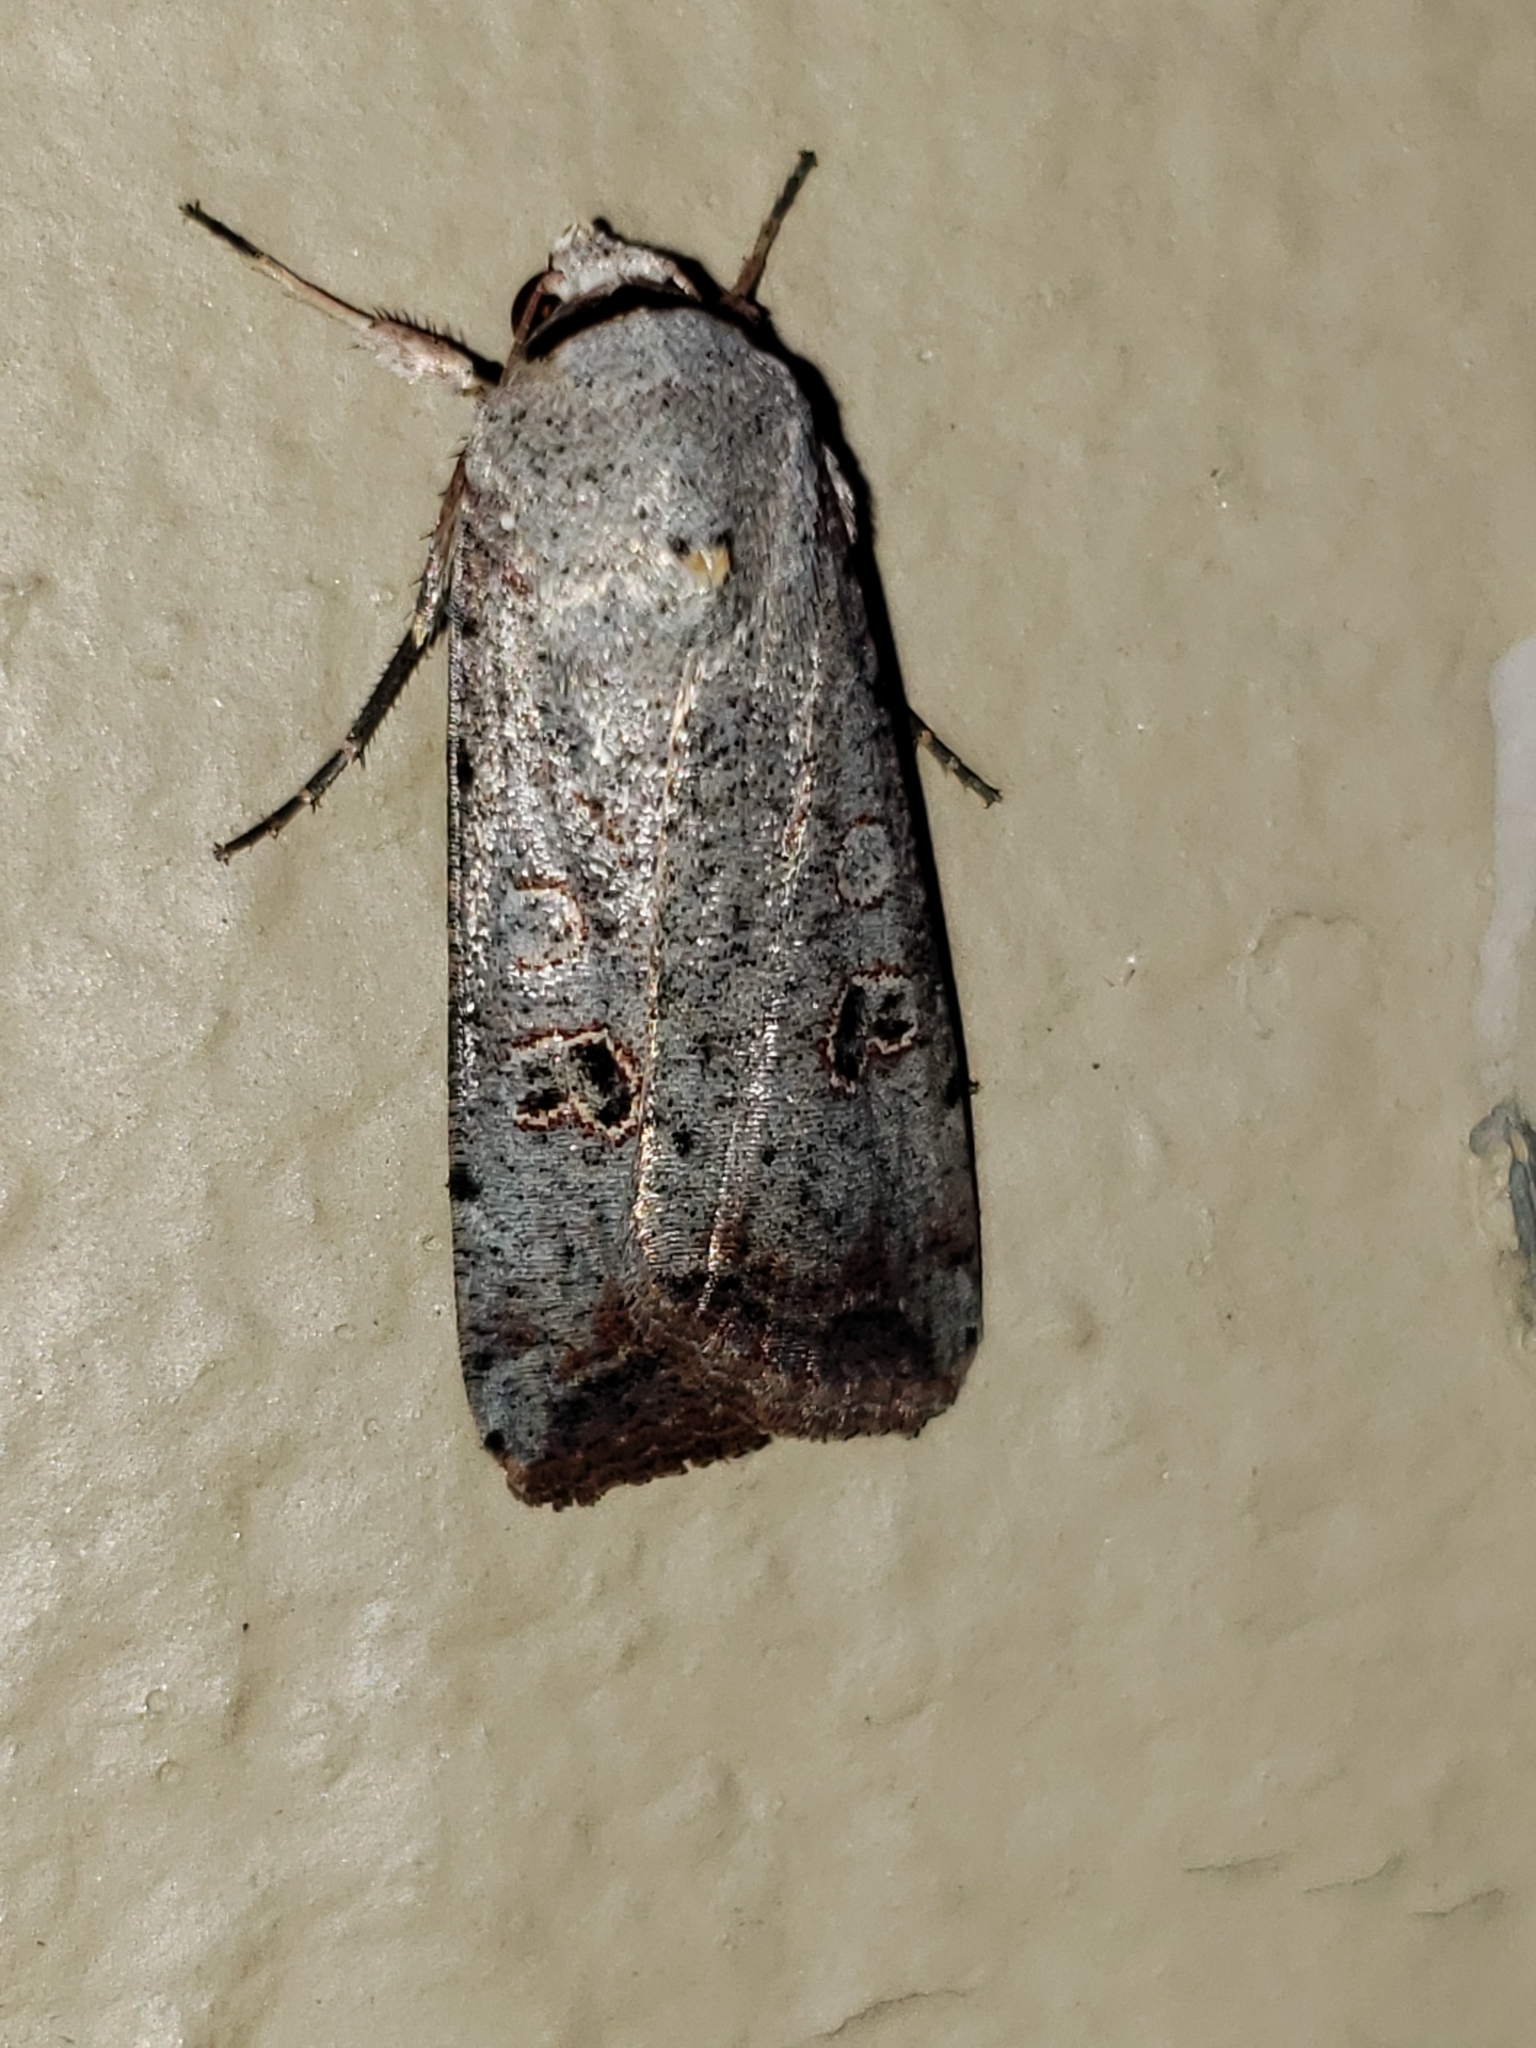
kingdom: Animalia
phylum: Arthropoda
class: Insecta
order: Lepidoptera
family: Noctuidae
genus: Anicla
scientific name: Anicla infecta
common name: Green cutworm
